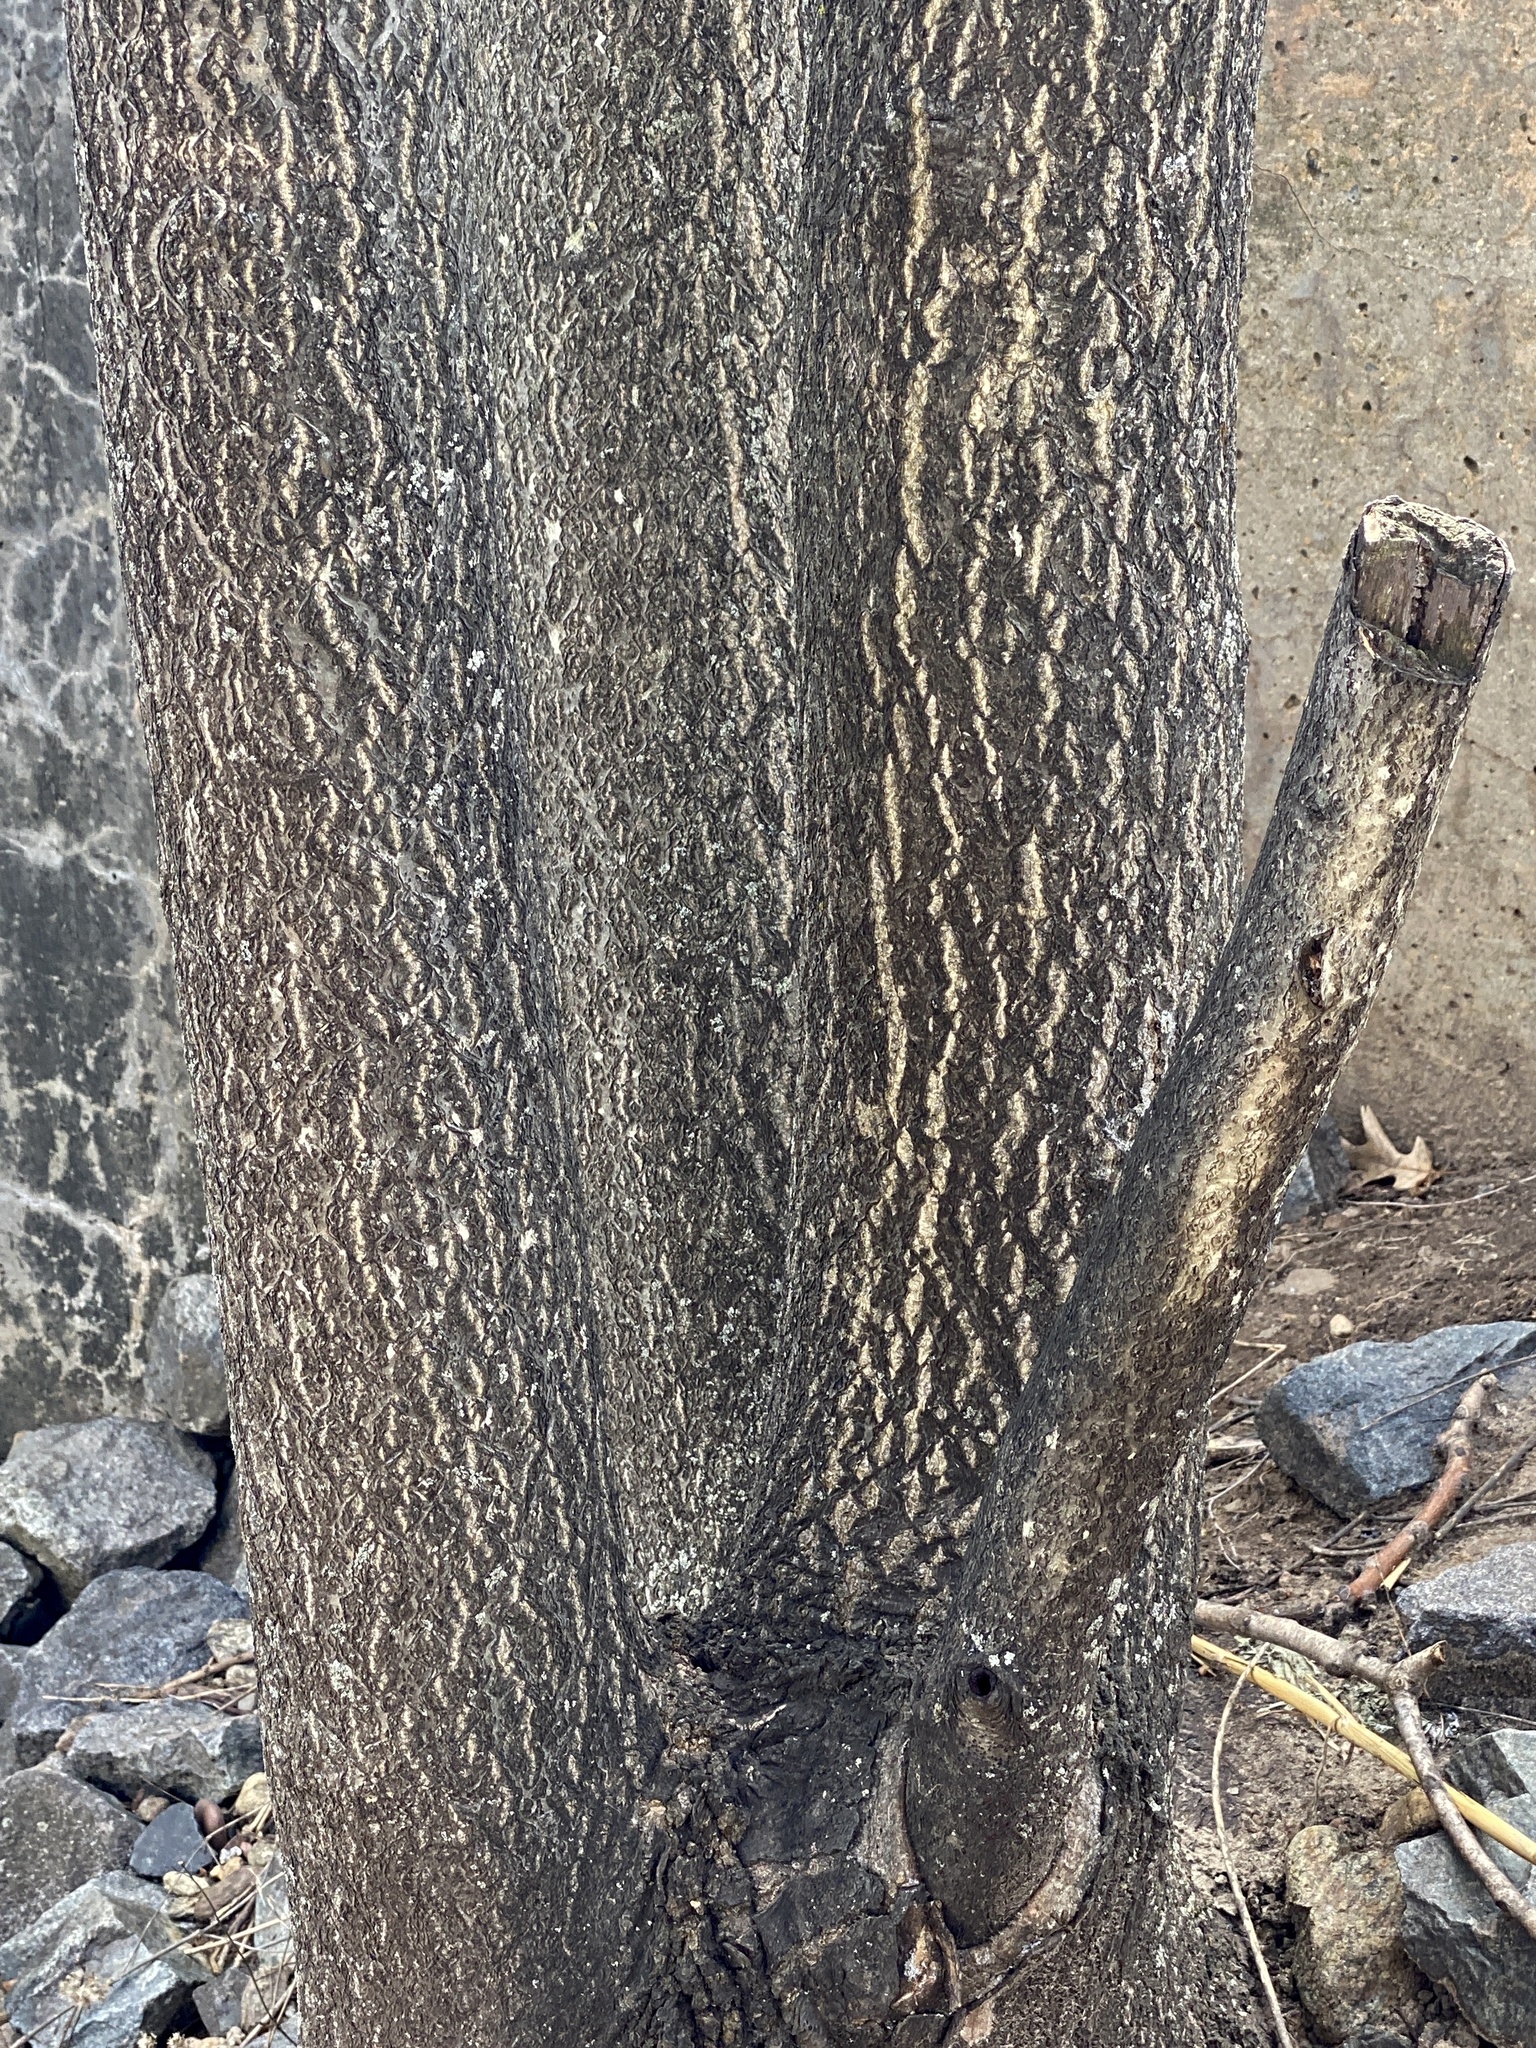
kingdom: Plantae
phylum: Tracheophyta
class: Magnoliopsida
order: Sapindales
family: Simaroubaceae
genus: Ailanthus
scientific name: Ailanthus altissima
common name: Tree-of-heaven
